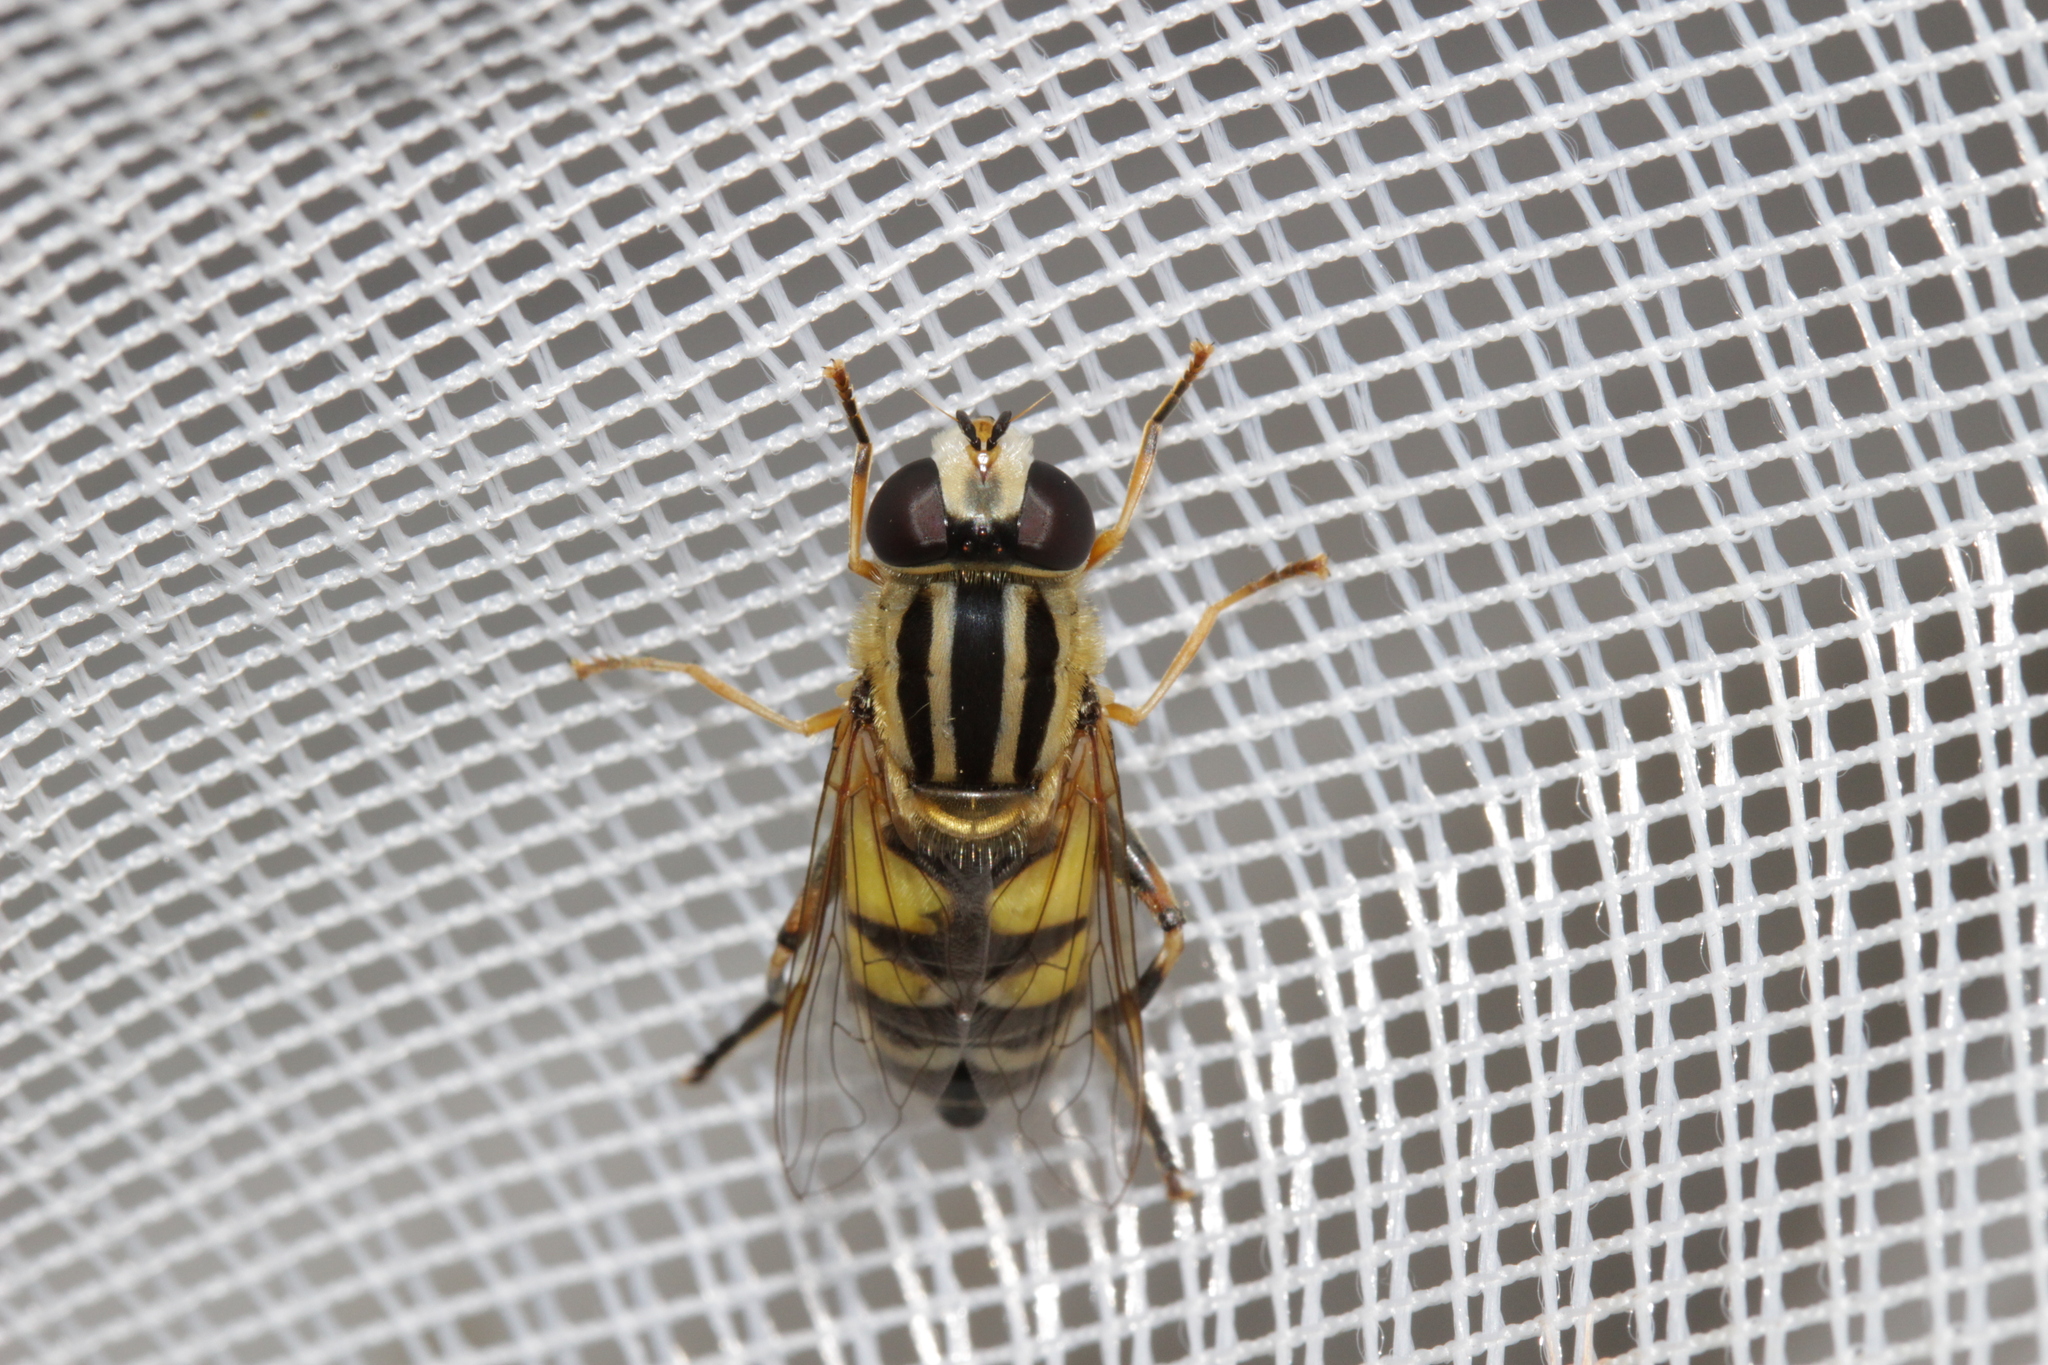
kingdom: Animalia
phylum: Arthropoda
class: Insecta
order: Diptera
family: Syrphidae
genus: Helophilus
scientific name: Helophilus trivittatus
